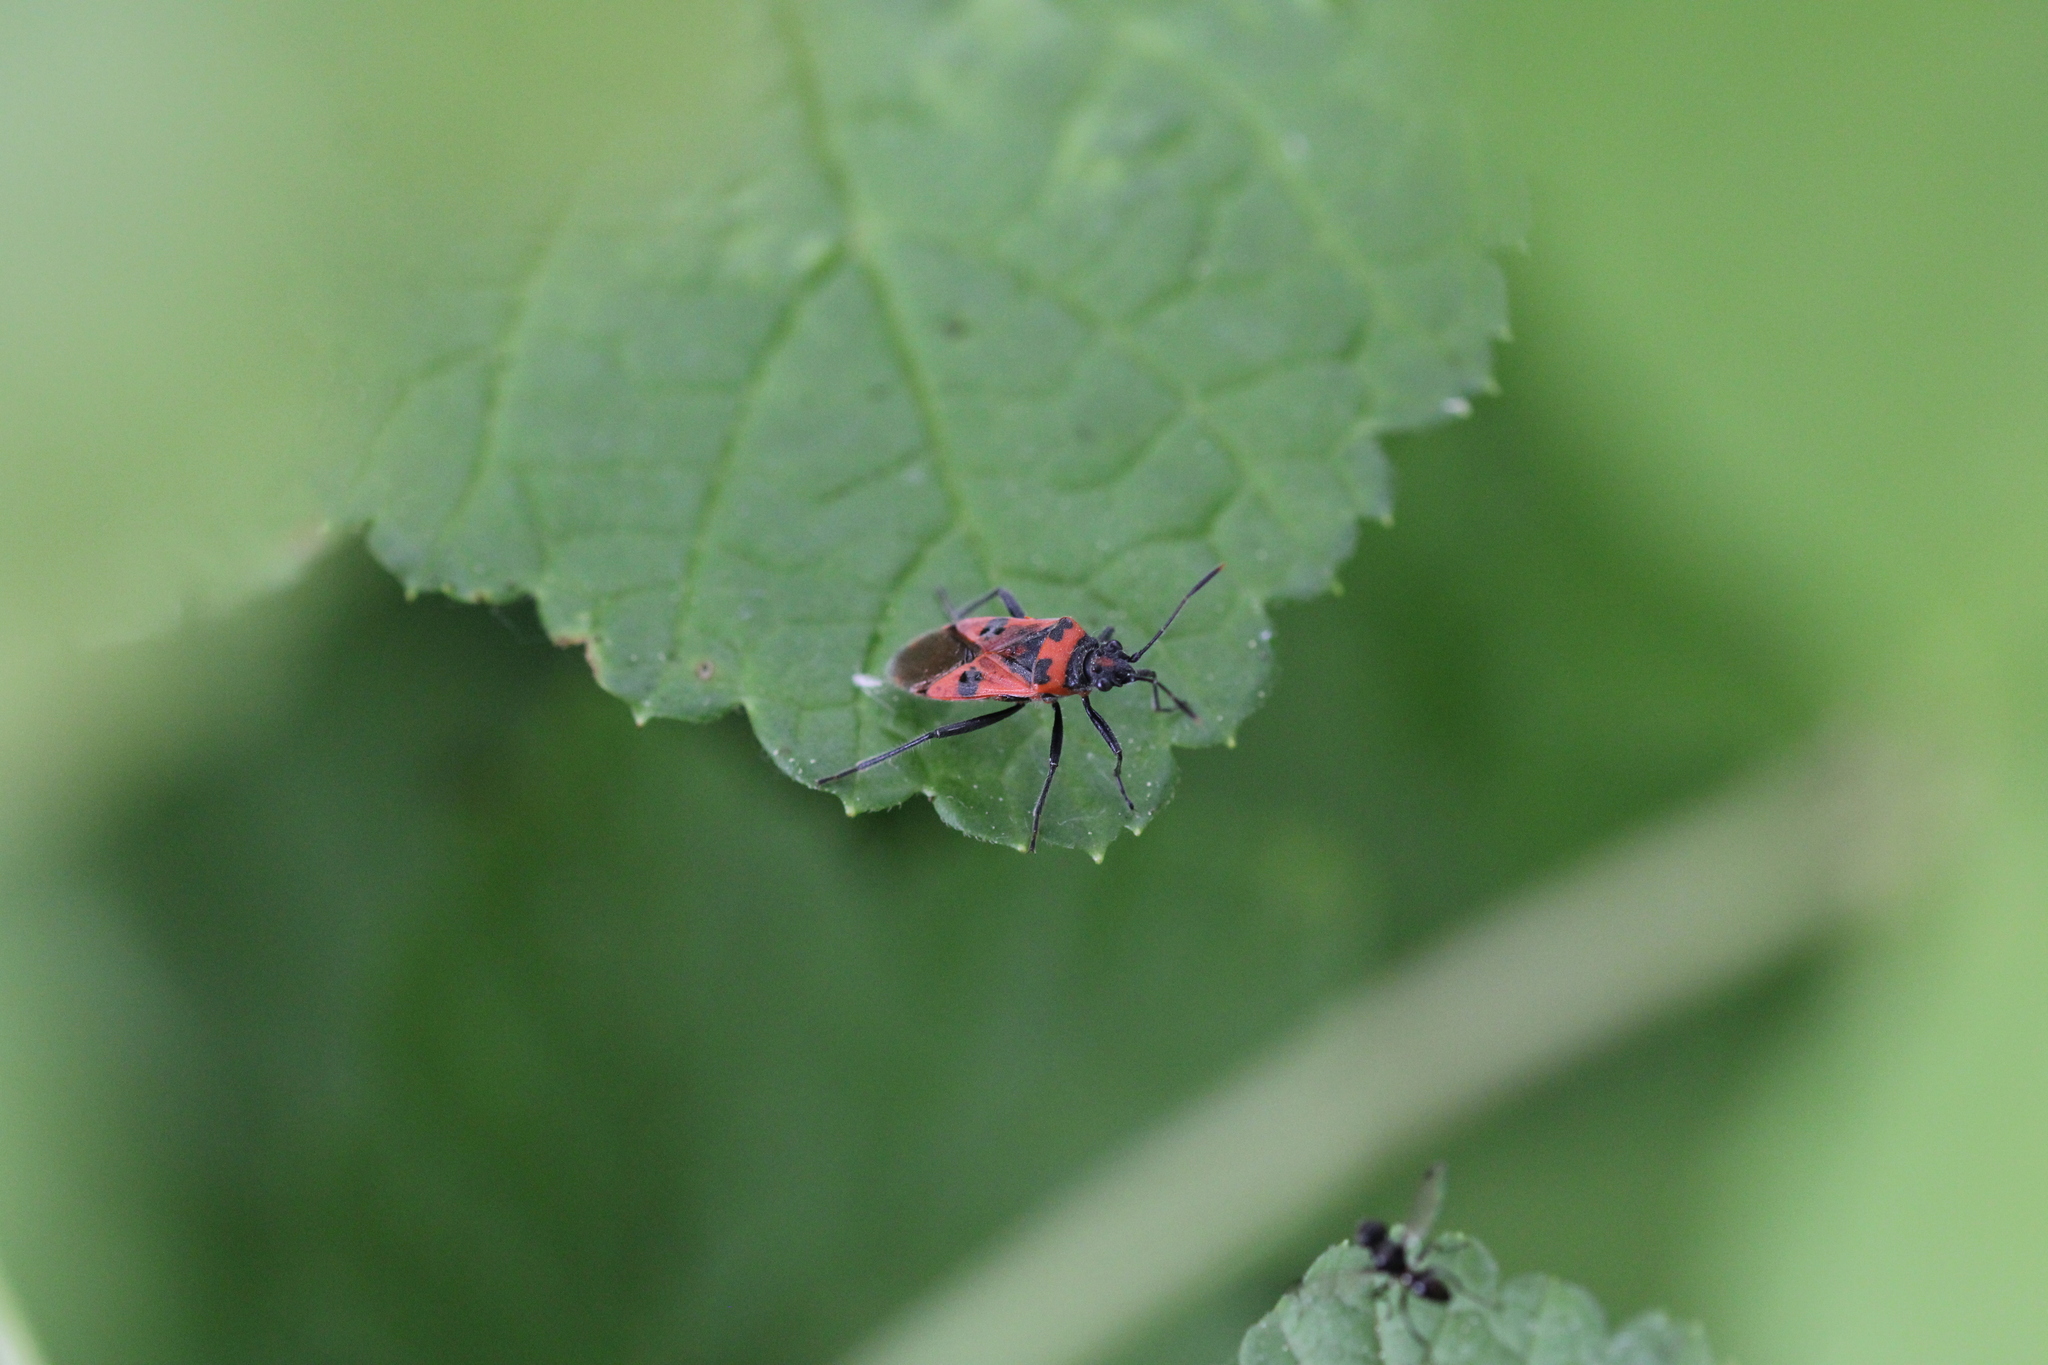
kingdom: Animalia
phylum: Arthropoda
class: Insecta
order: Hemiptera
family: Rhopalidae
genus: Corizus
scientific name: Corizus hyoscyami
